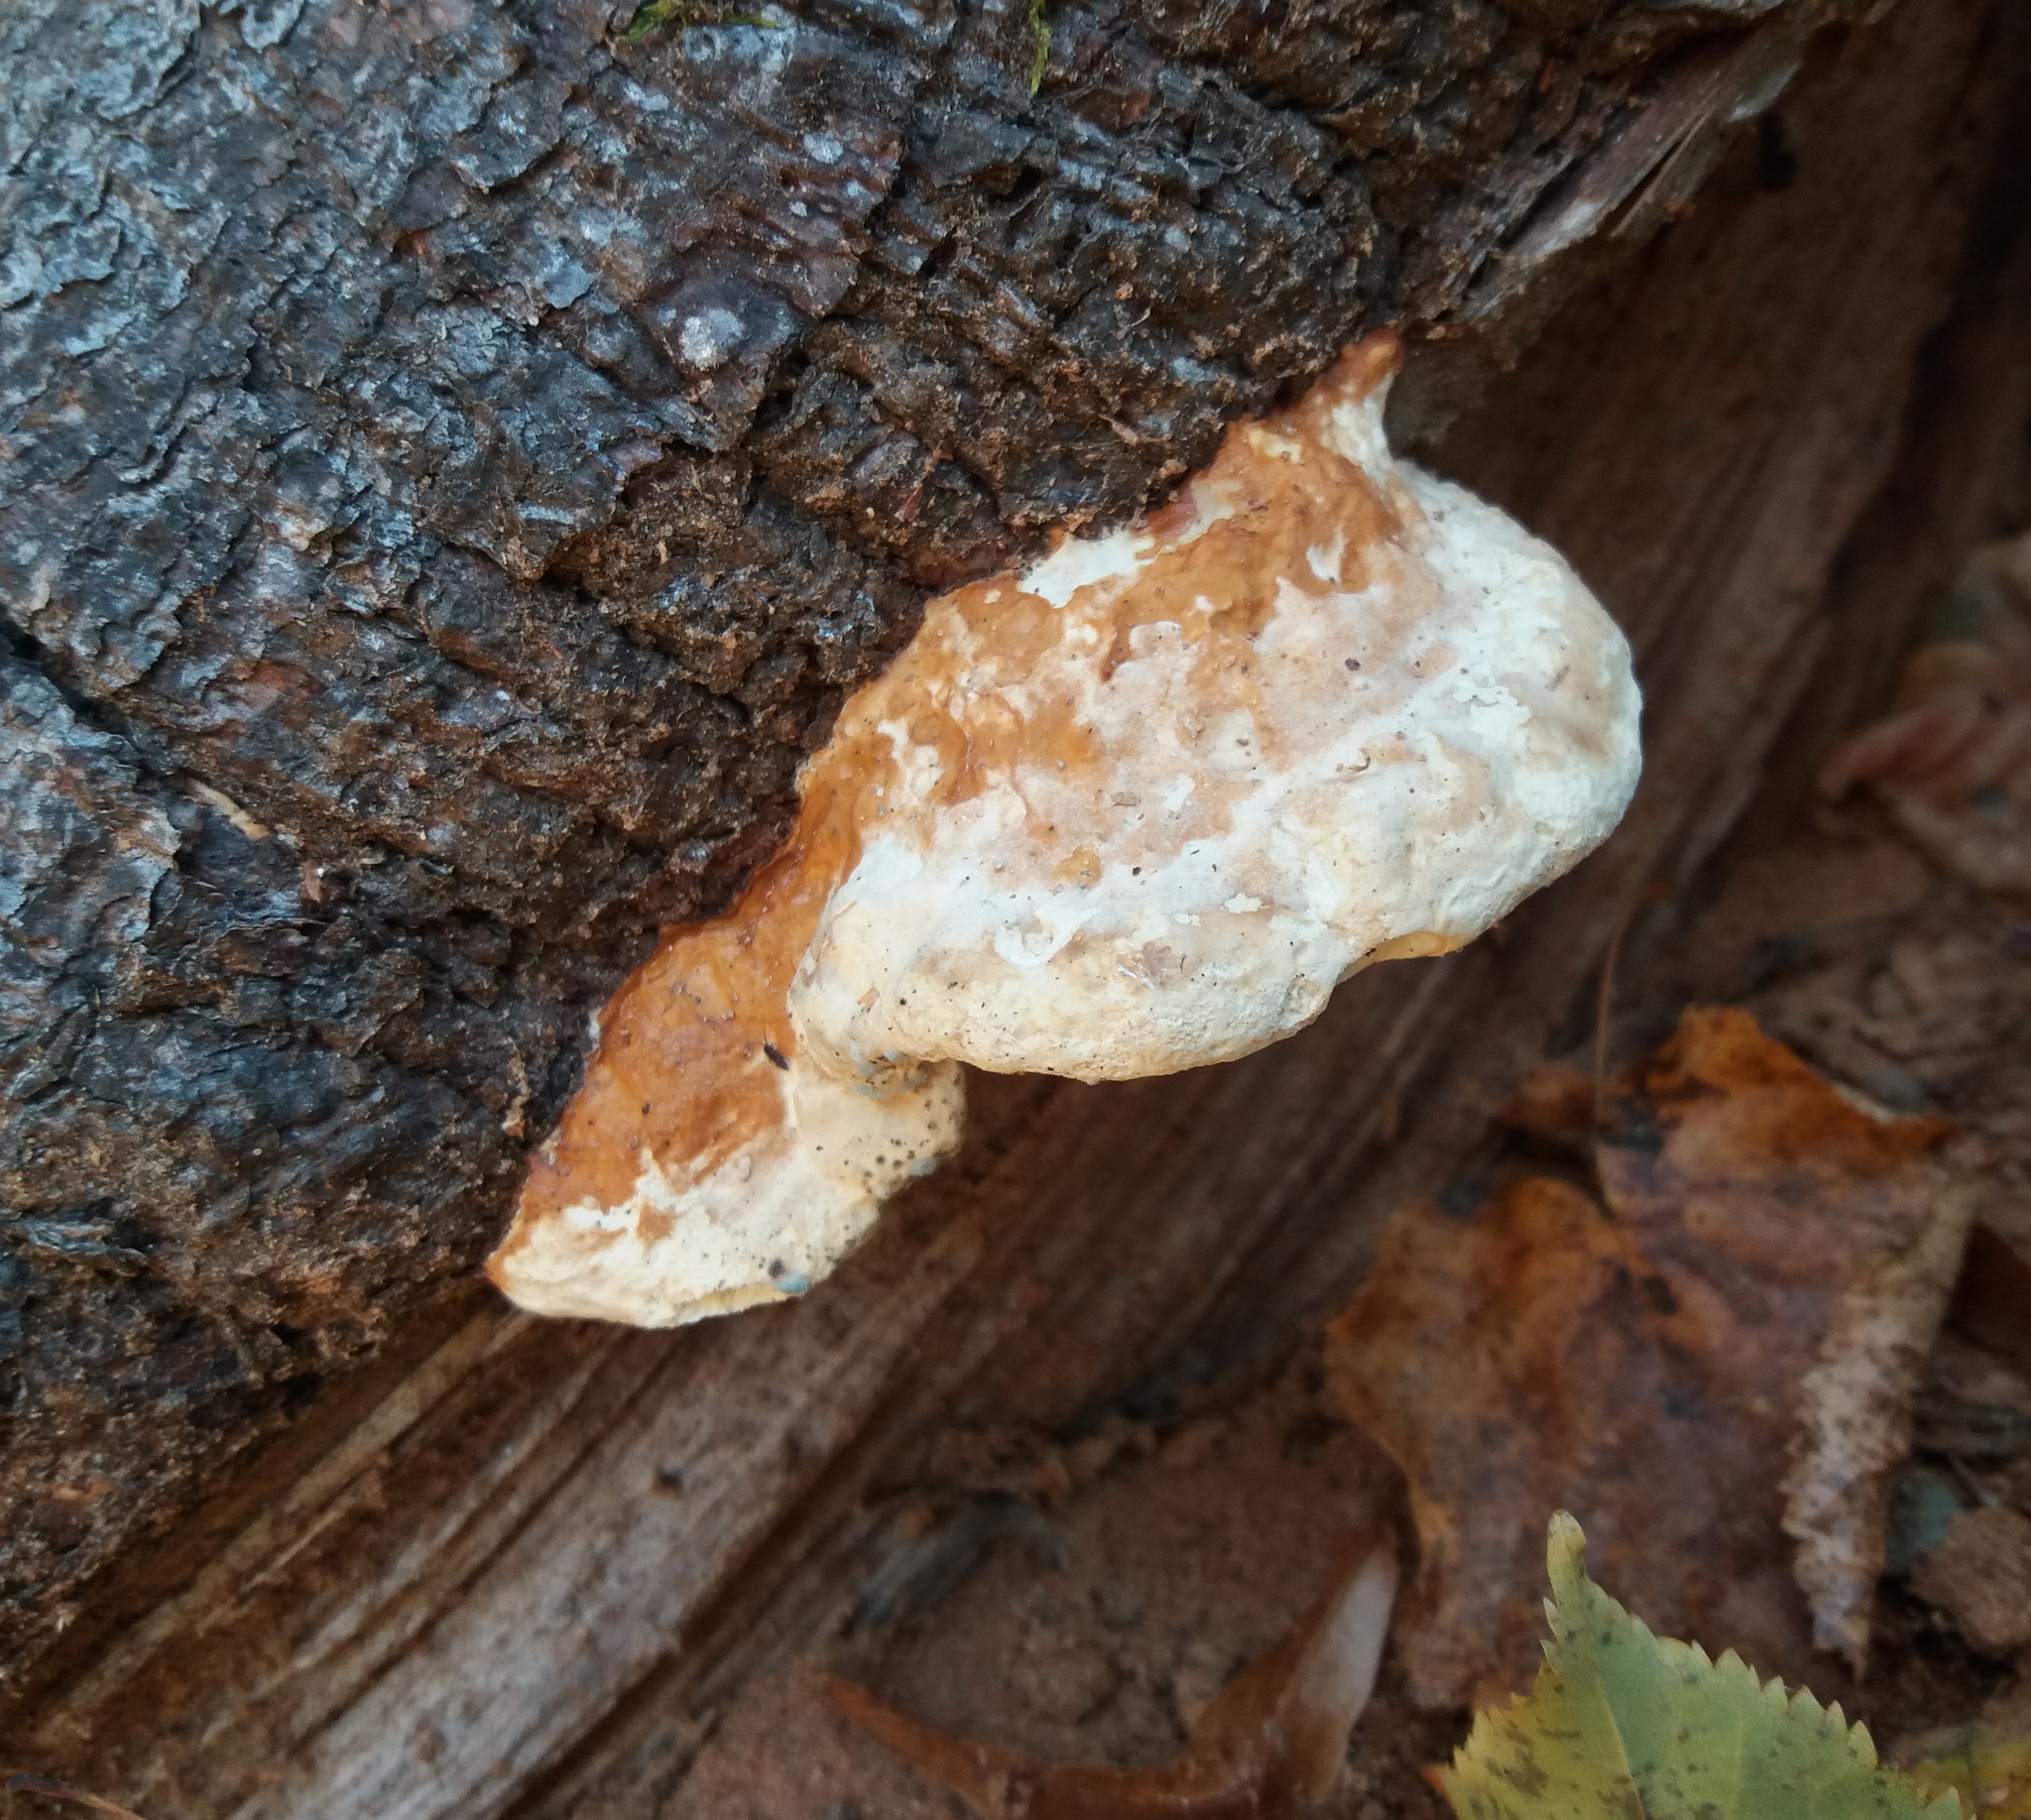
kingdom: Fungi
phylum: Basidiomycota
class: Agaricomycetes
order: Polyporales
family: Fomitopsidaceae
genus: Fomitopsis
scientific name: Fomitopsis pinicola
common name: Red-belted bracket
